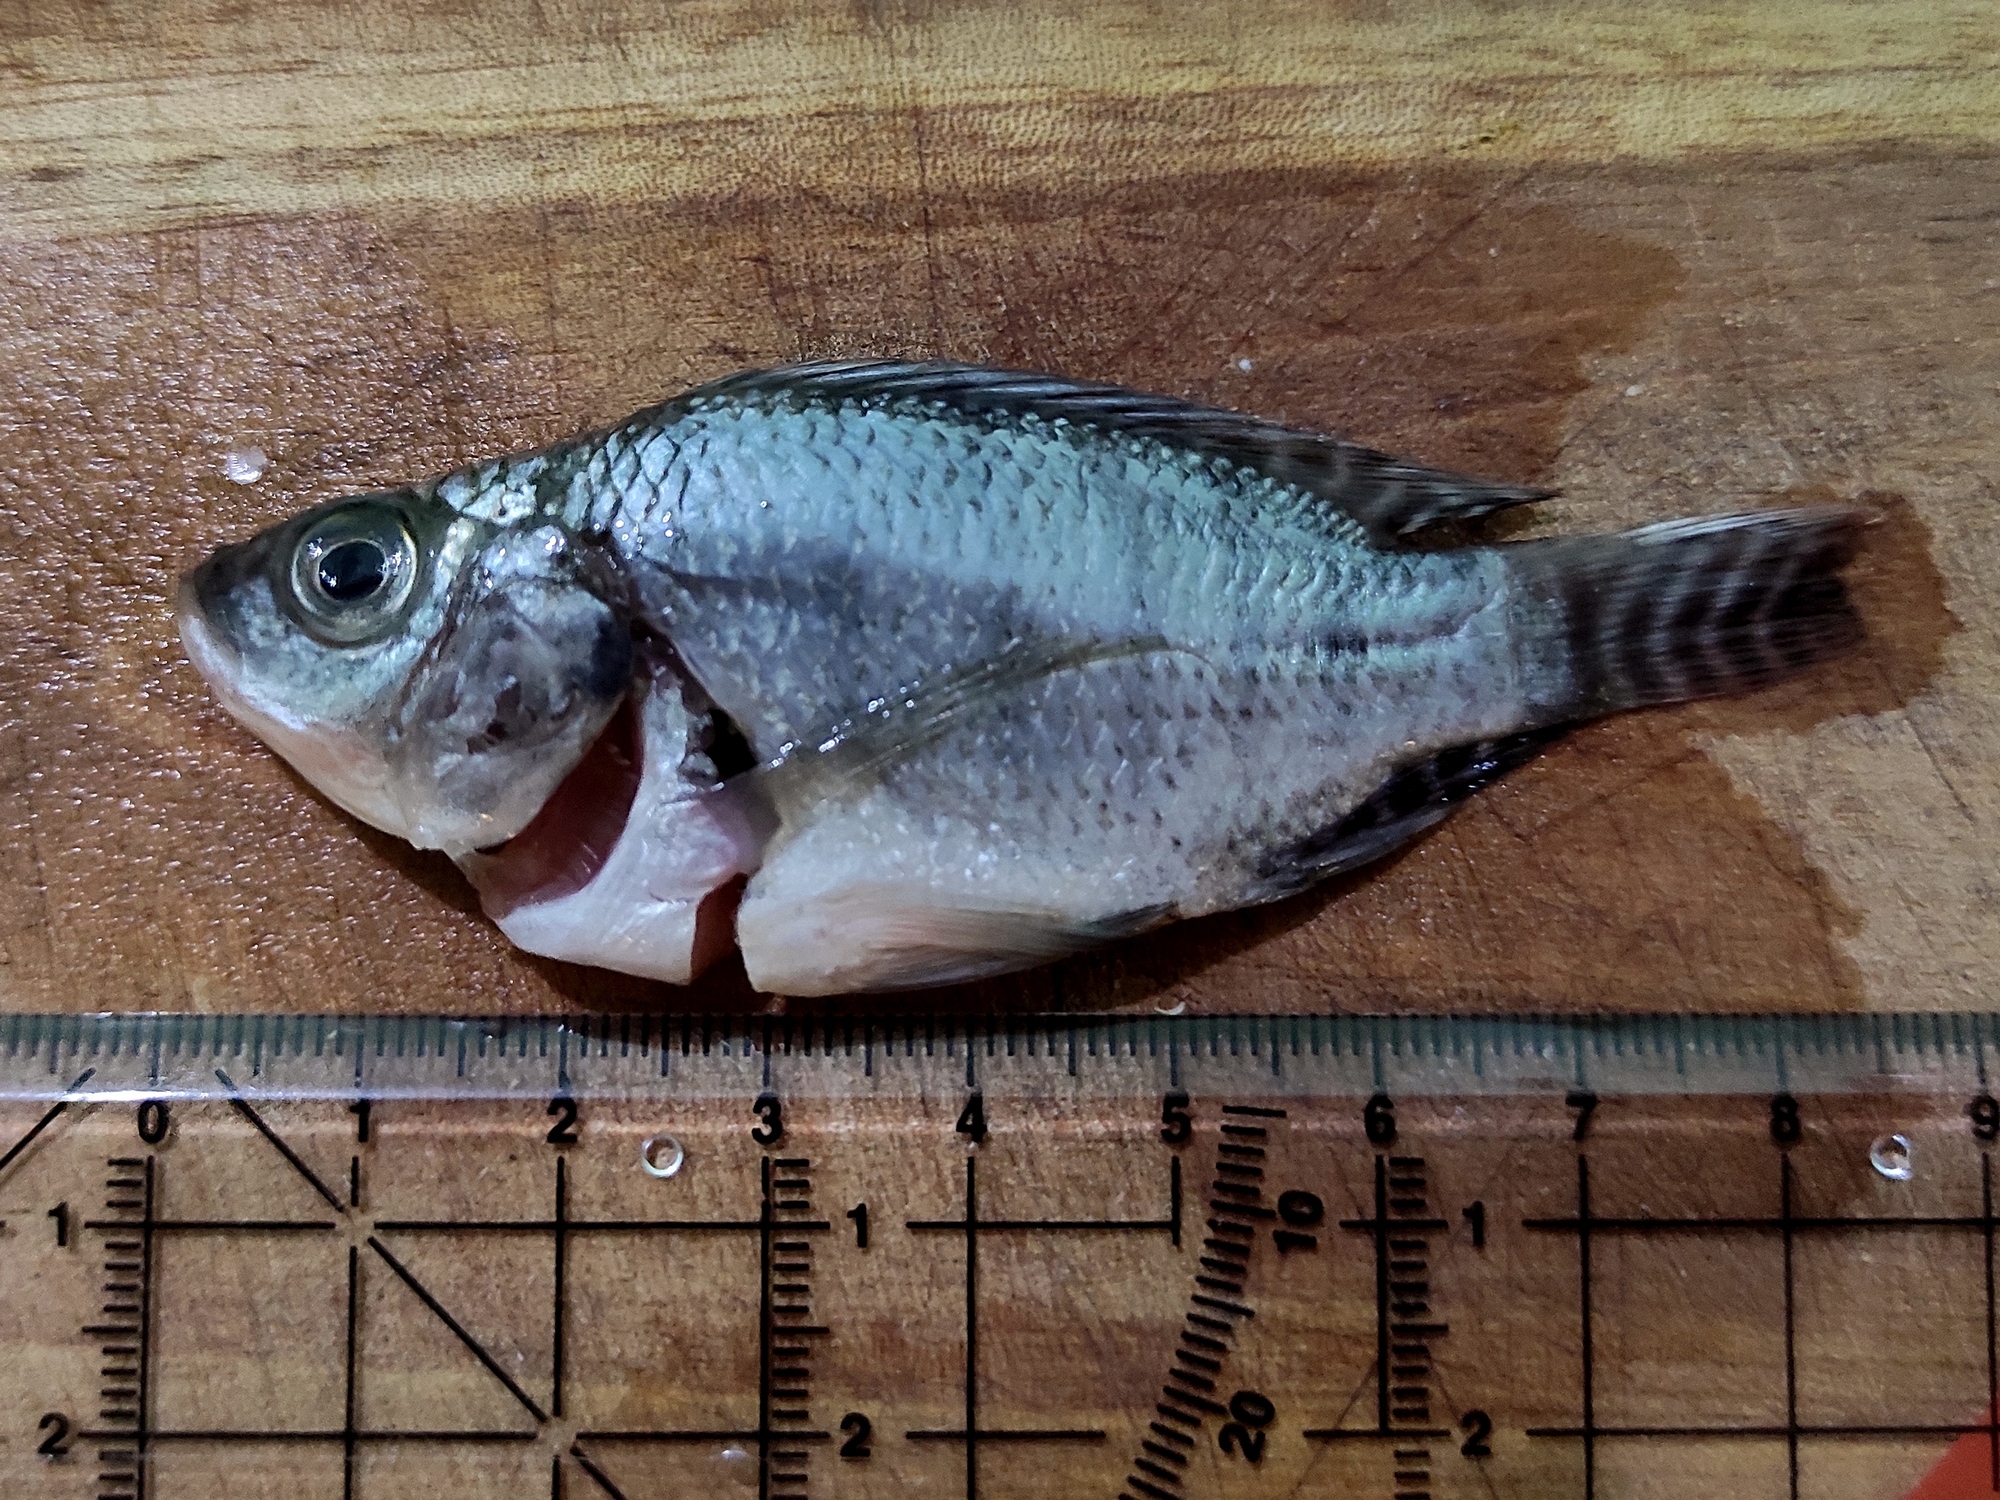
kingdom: Animalia
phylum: Chordata
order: Perciformes
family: Cichlidae
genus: Oreochromis
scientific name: Oreochromis niloticus
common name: Nile tilapia
